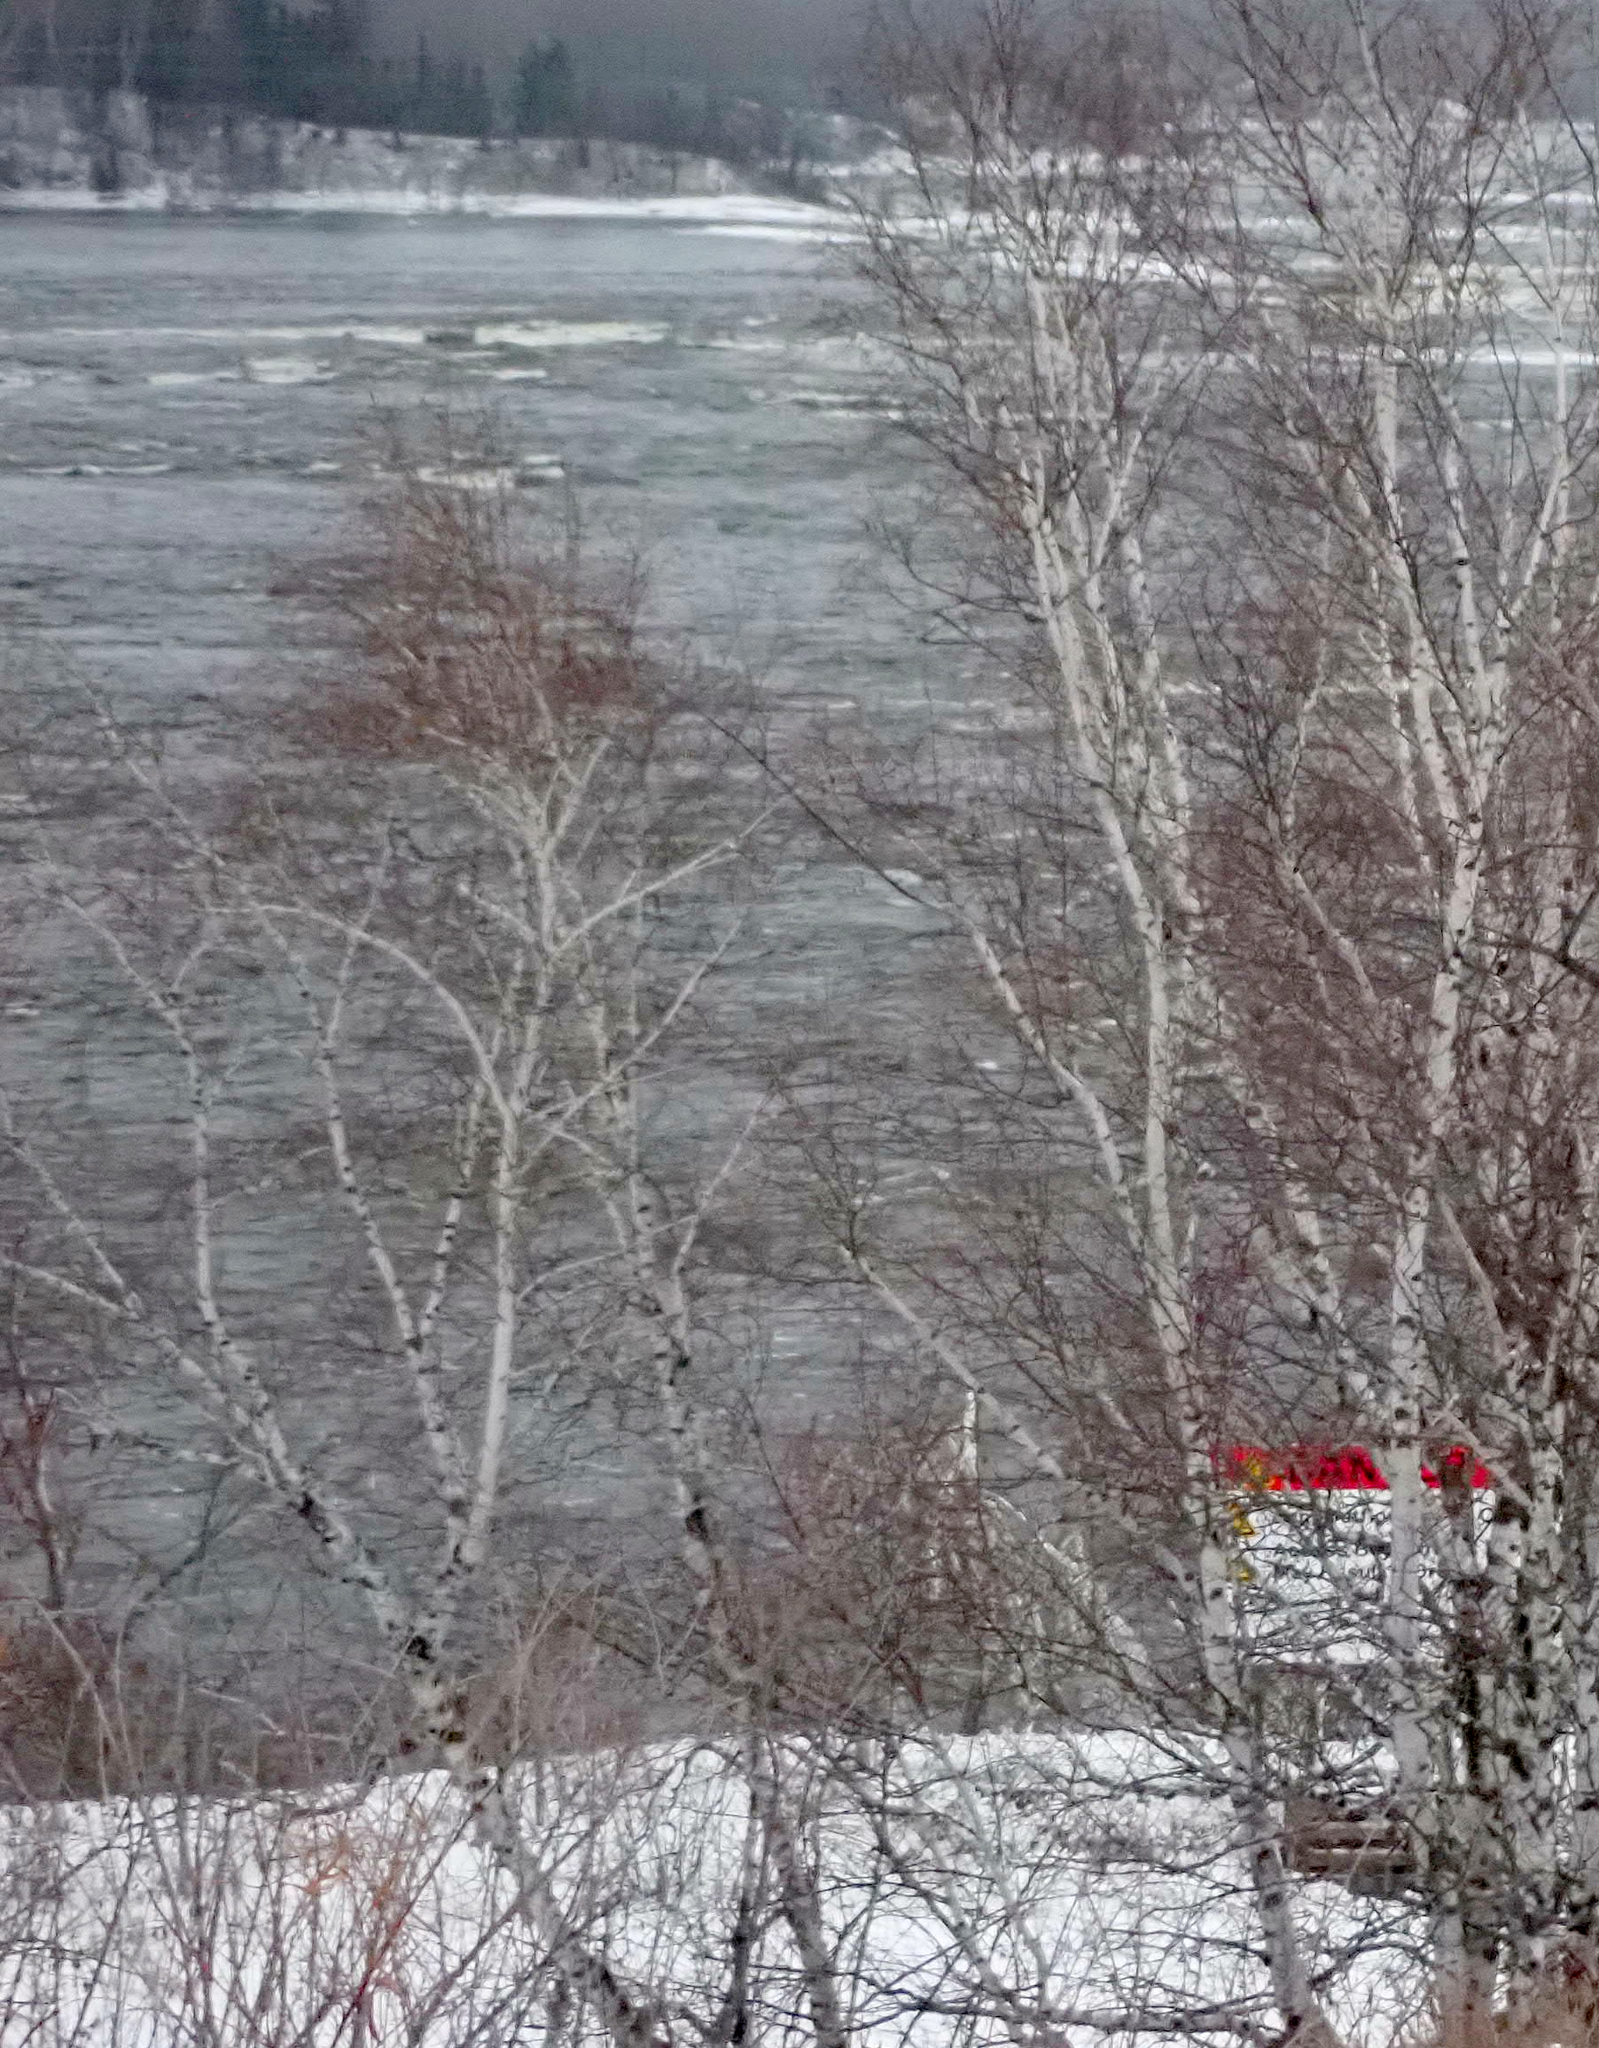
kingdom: Plantae
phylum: Tracheophyta
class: Magnoliopsida
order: Fagales
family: Betulaceae
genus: Betula
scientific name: Betula papyrifera
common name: Paper birch
